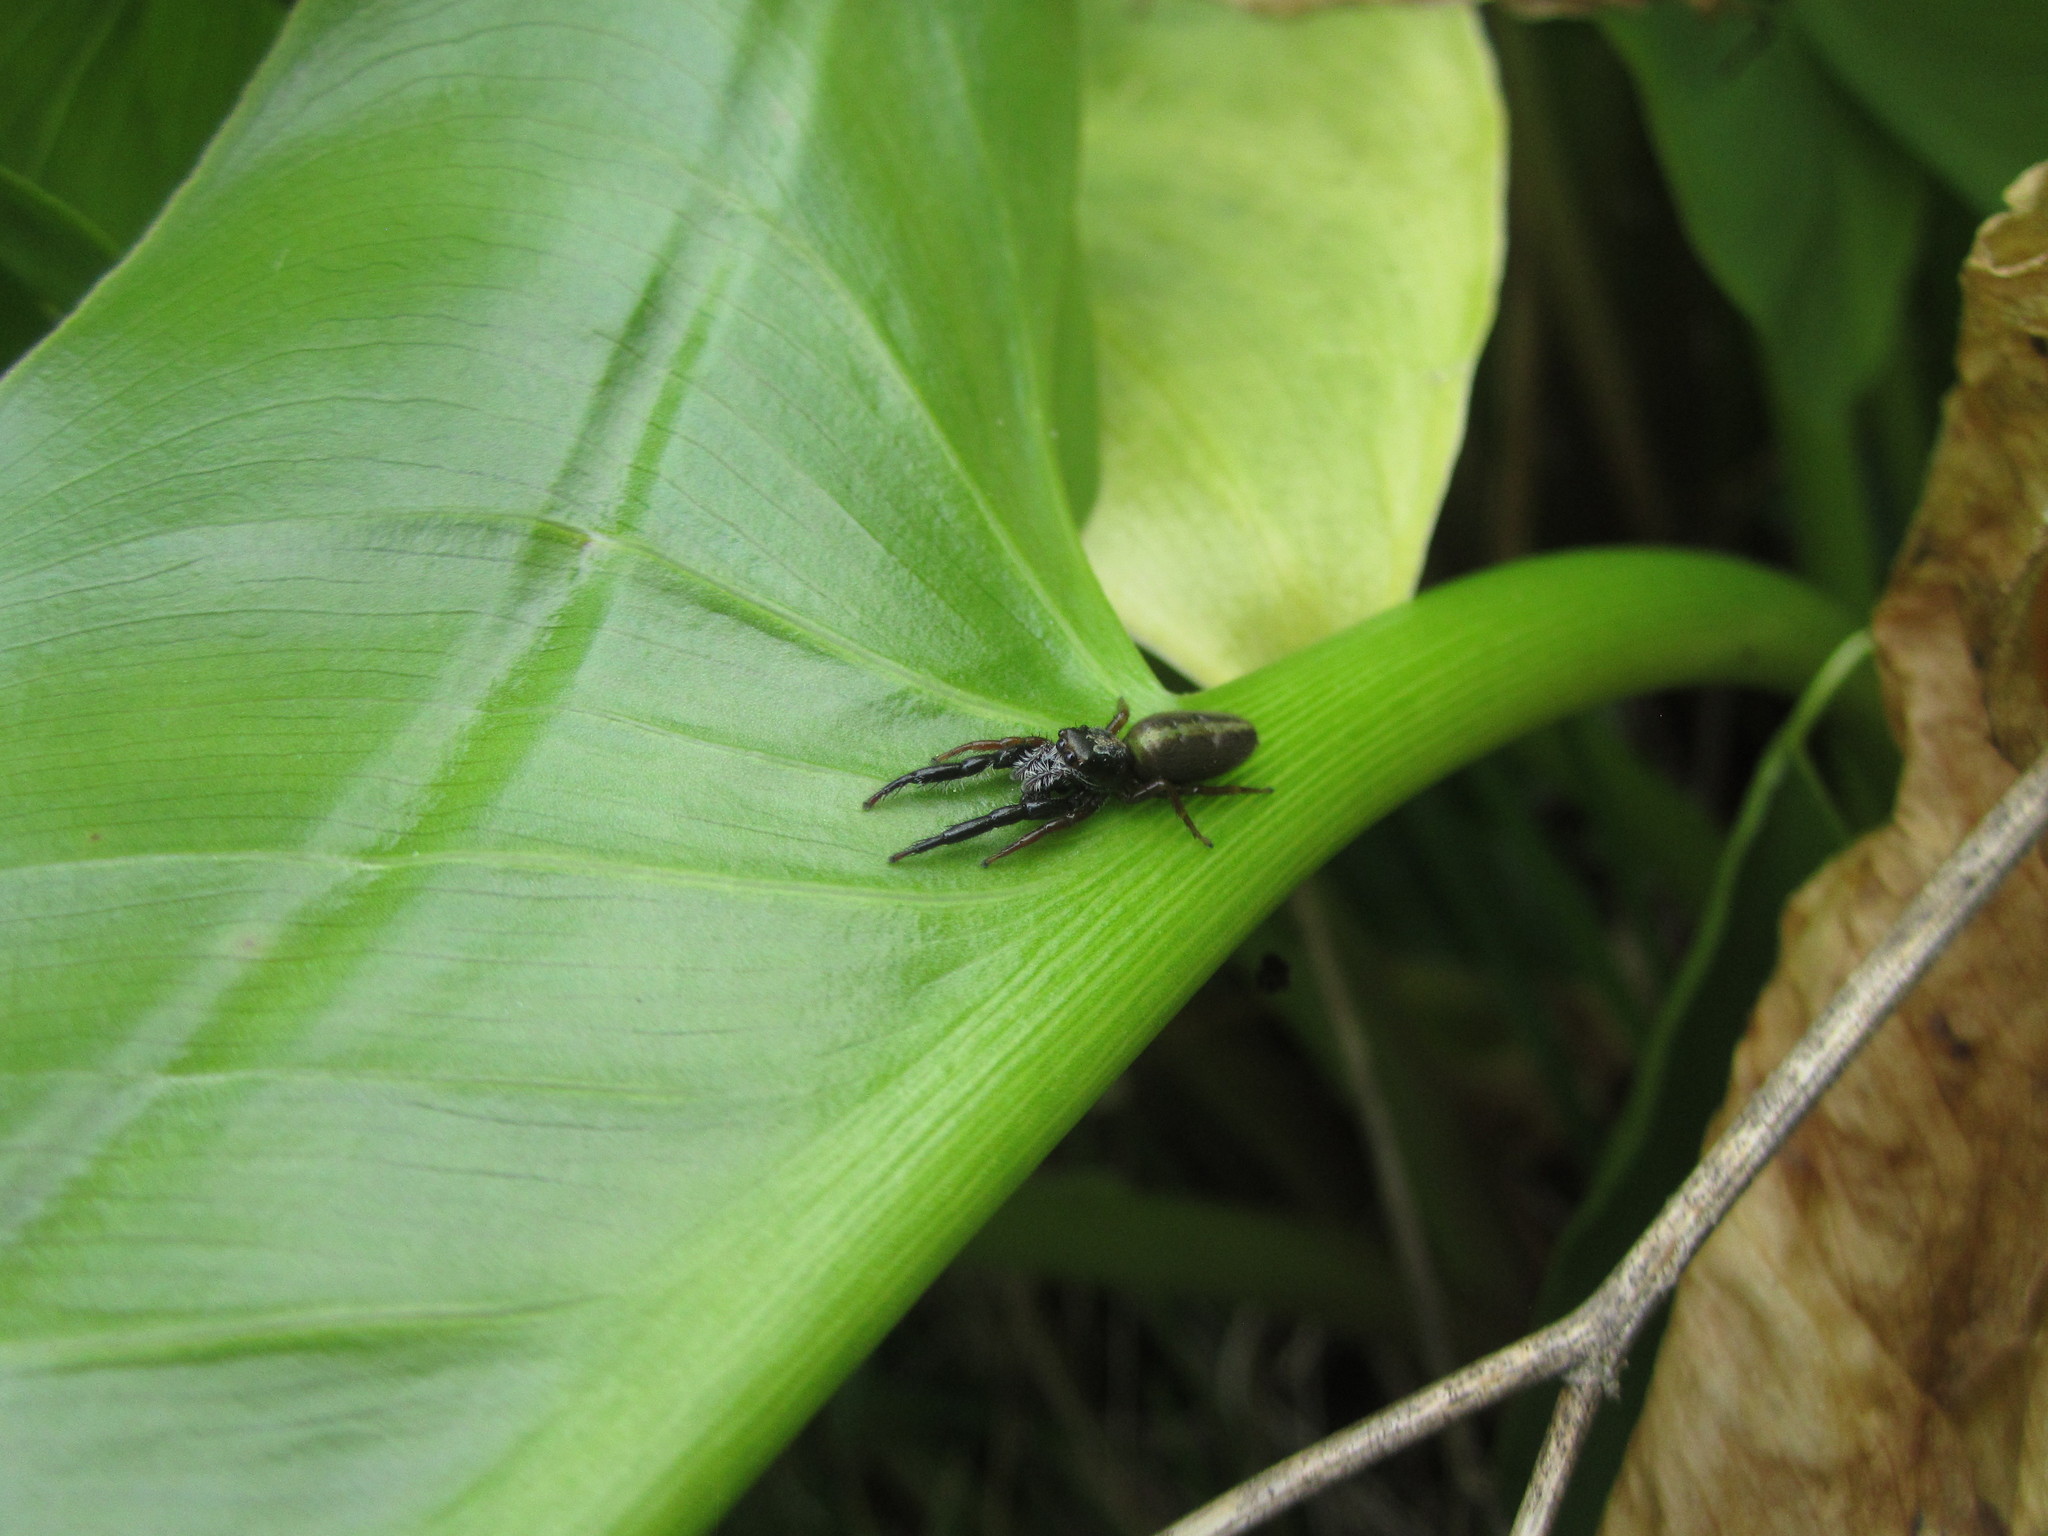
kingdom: Animalia
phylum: Arthropoda
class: Arachnida
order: Araneae
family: Salticidae
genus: Trite
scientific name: Trite planiceps
